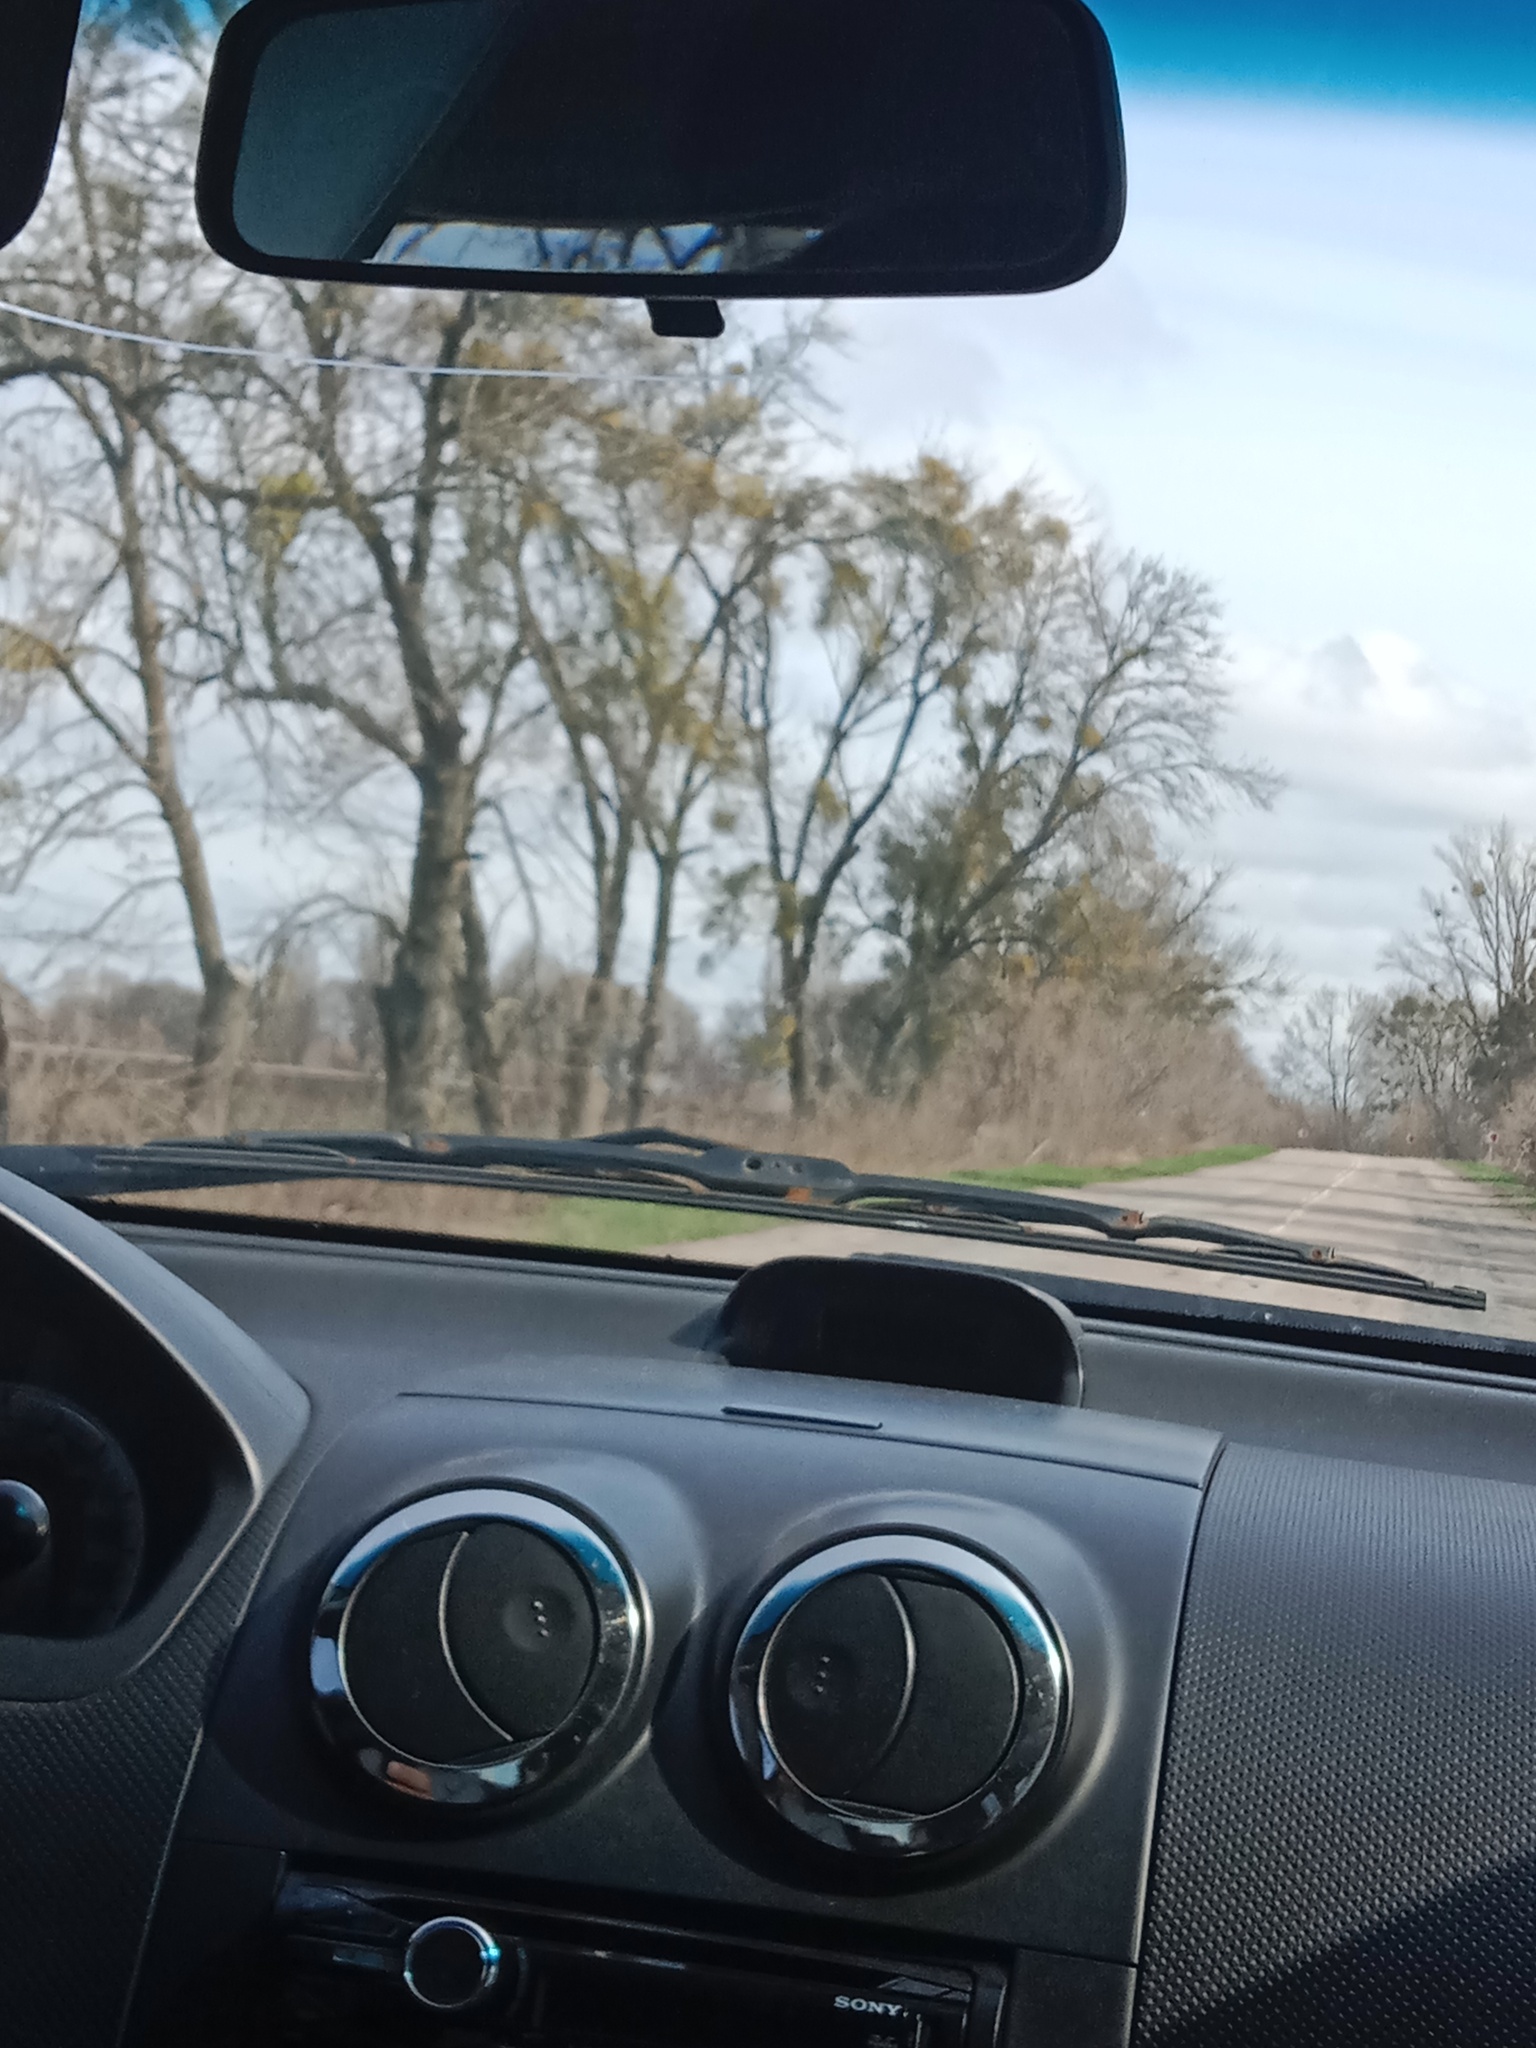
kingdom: Plantae
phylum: Tracheophyta
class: Magnoliopsida
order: Santalales
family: Viscaceae
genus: Viscum
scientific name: Viscum album
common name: Mistletoe
